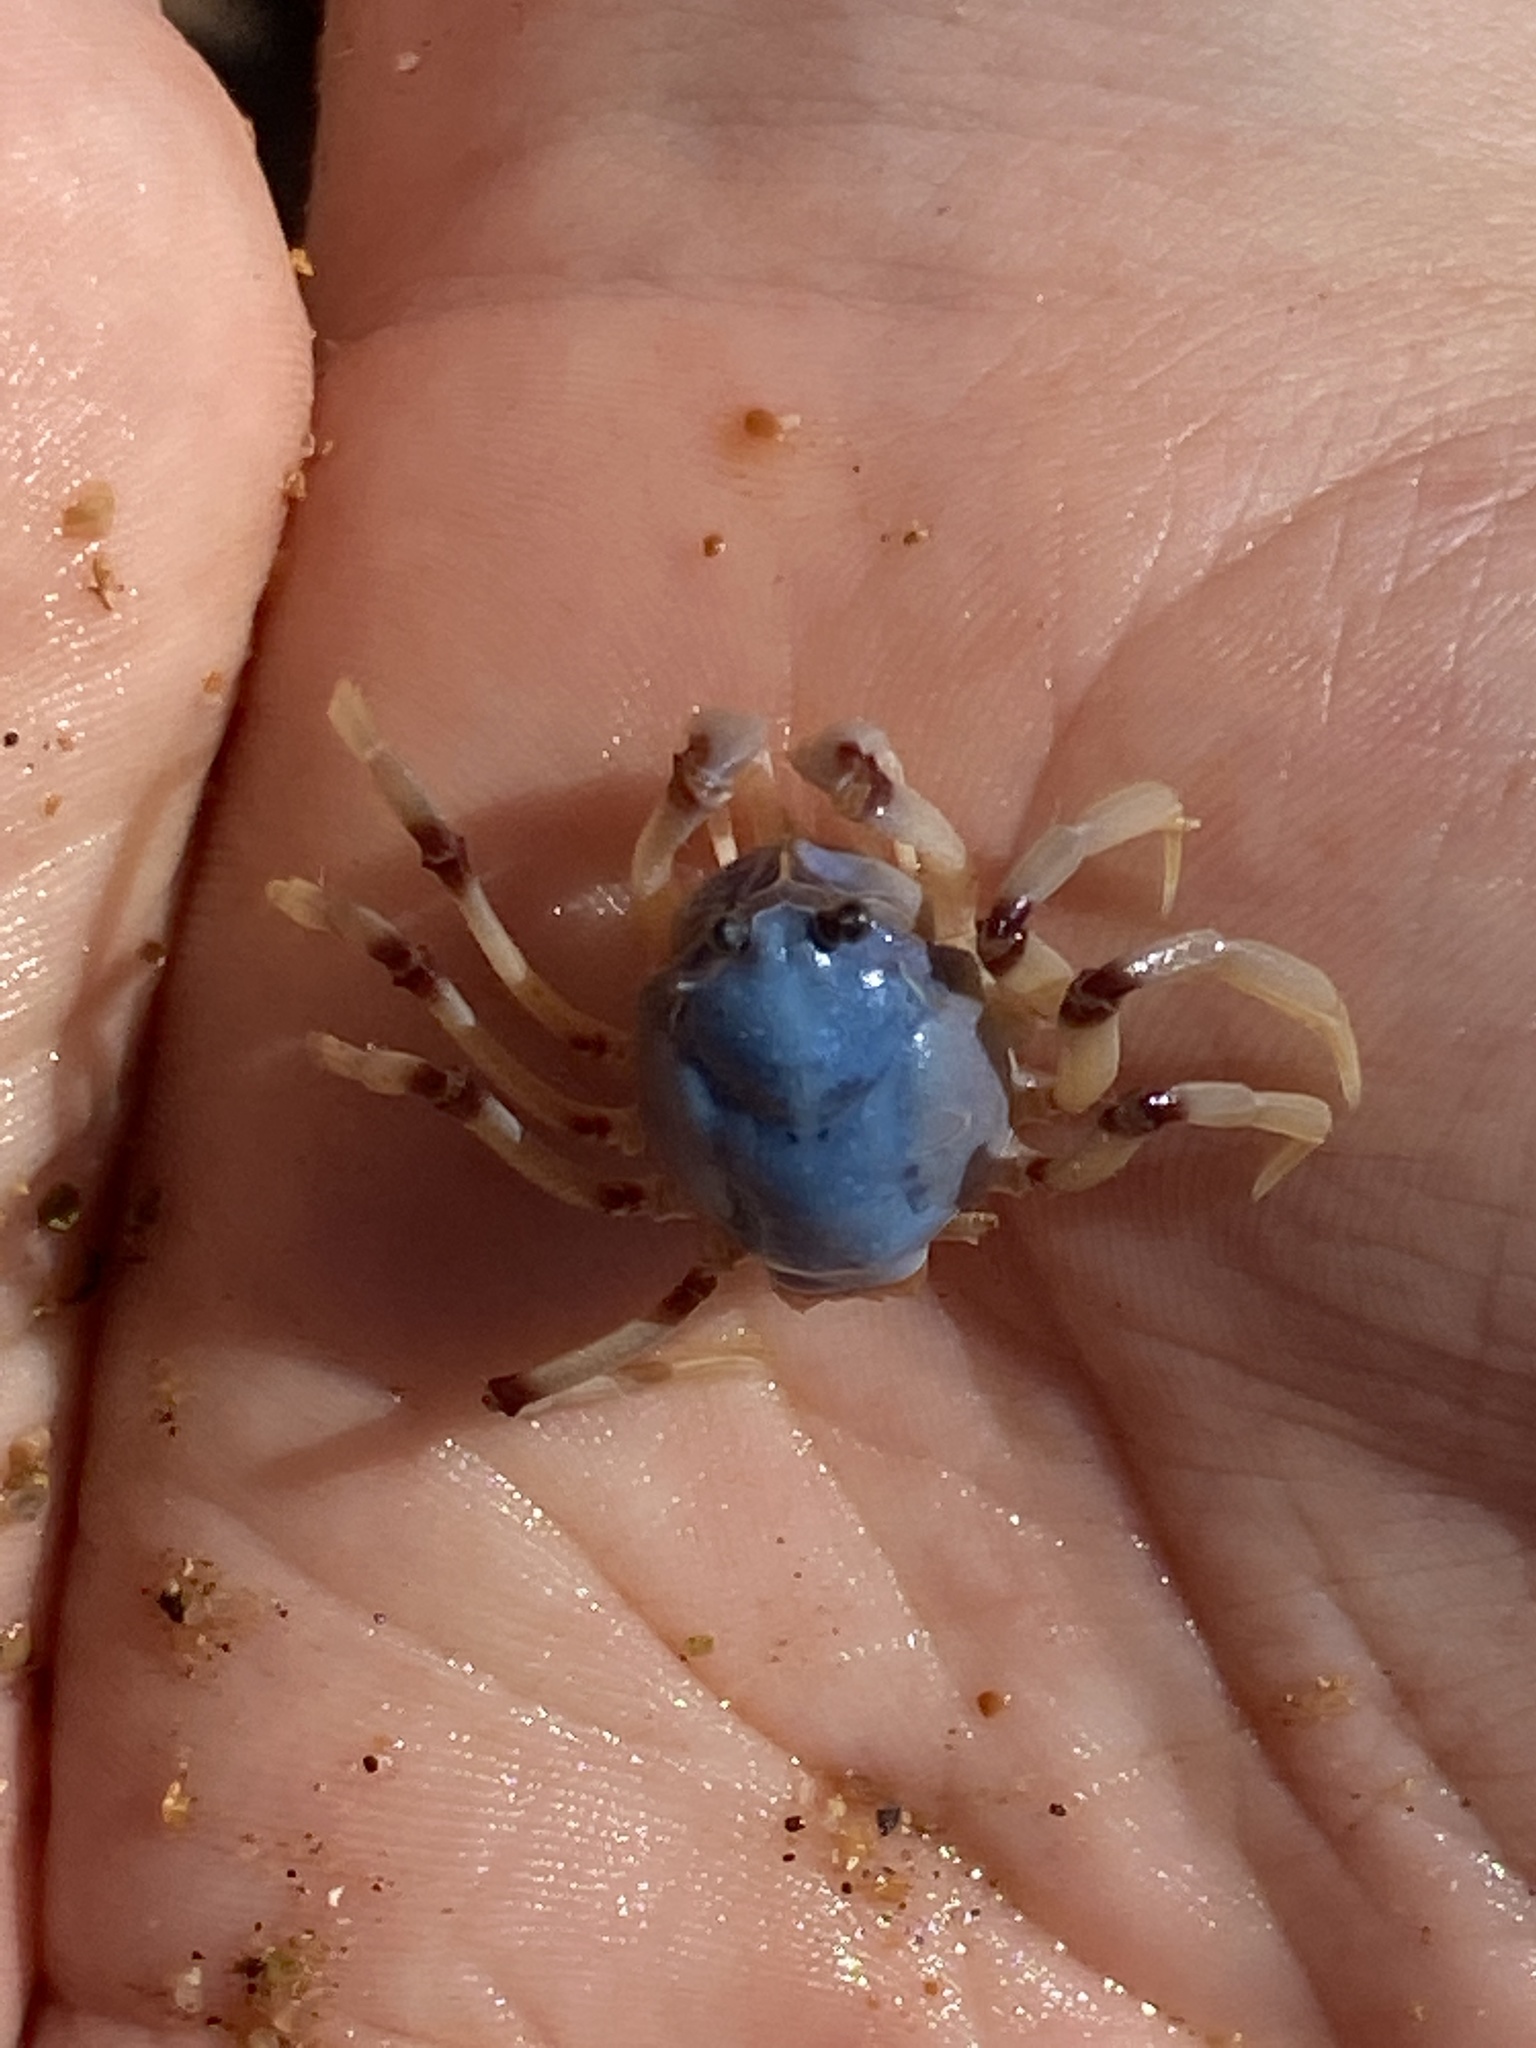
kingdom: Animalia
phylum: Arthropoda
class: Malacostraca
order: Decapoda
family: Mictyridae
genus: Mictyris
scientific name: Mictyris longicarpus
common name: Light-blue soldier crab
